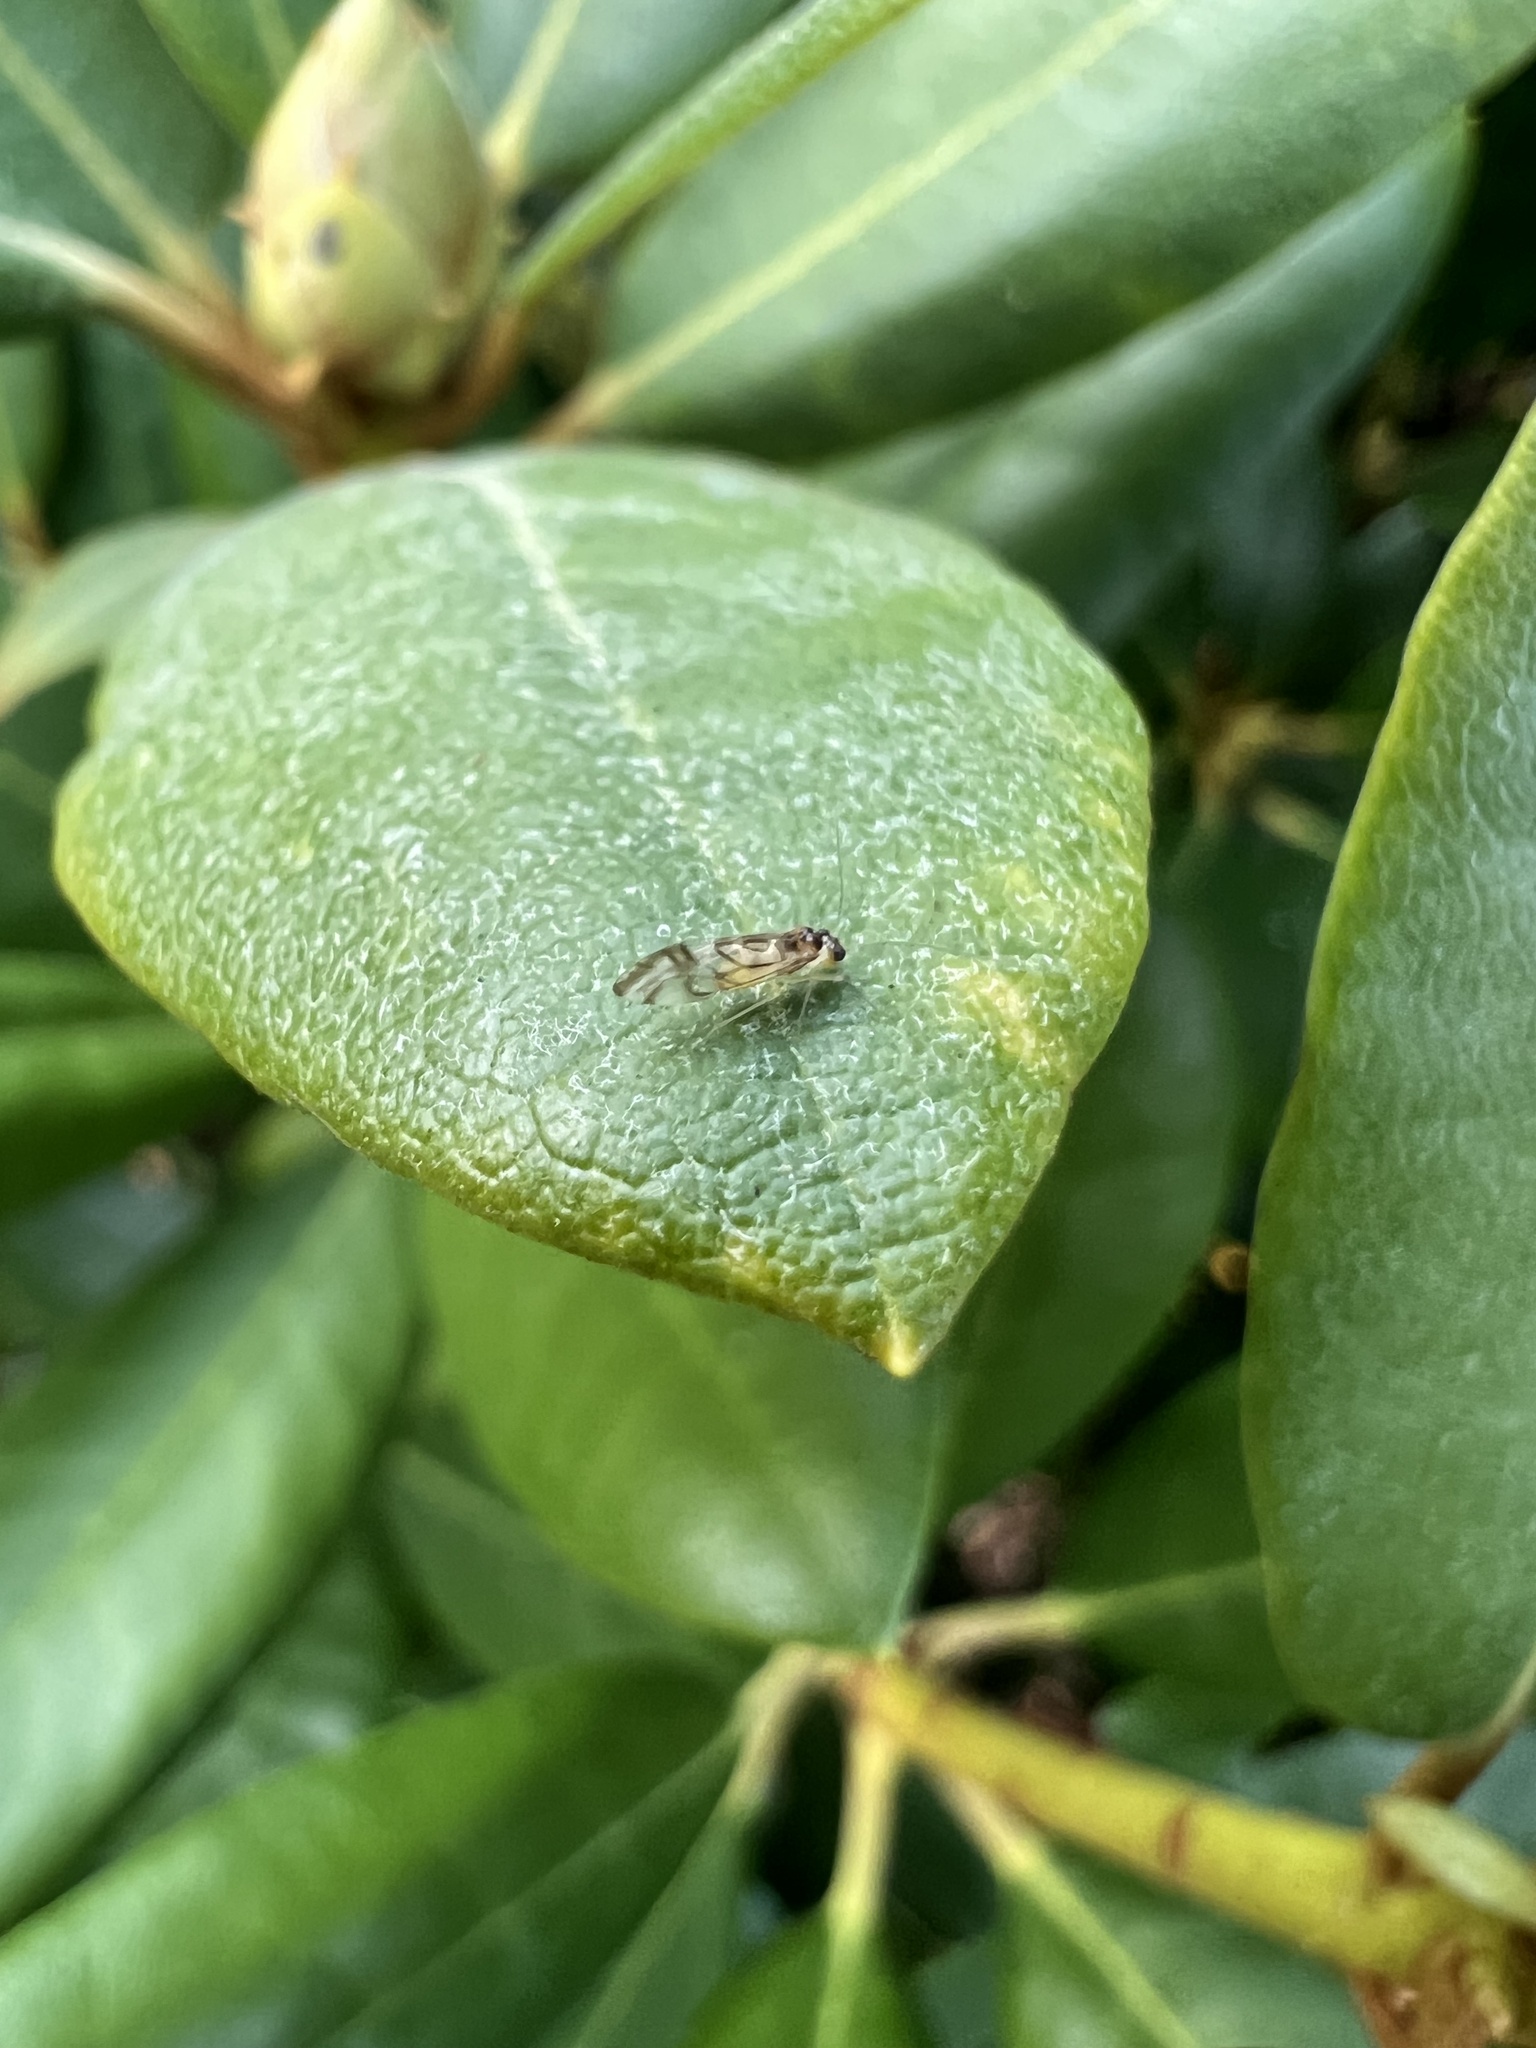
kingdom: Animalia
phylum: Arthropoda
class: Insecta
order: Psocodea
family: Stenopsocidae
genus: Graphopsocus
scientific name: Graphopsocus cruciatus
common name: Lizard bark louse
